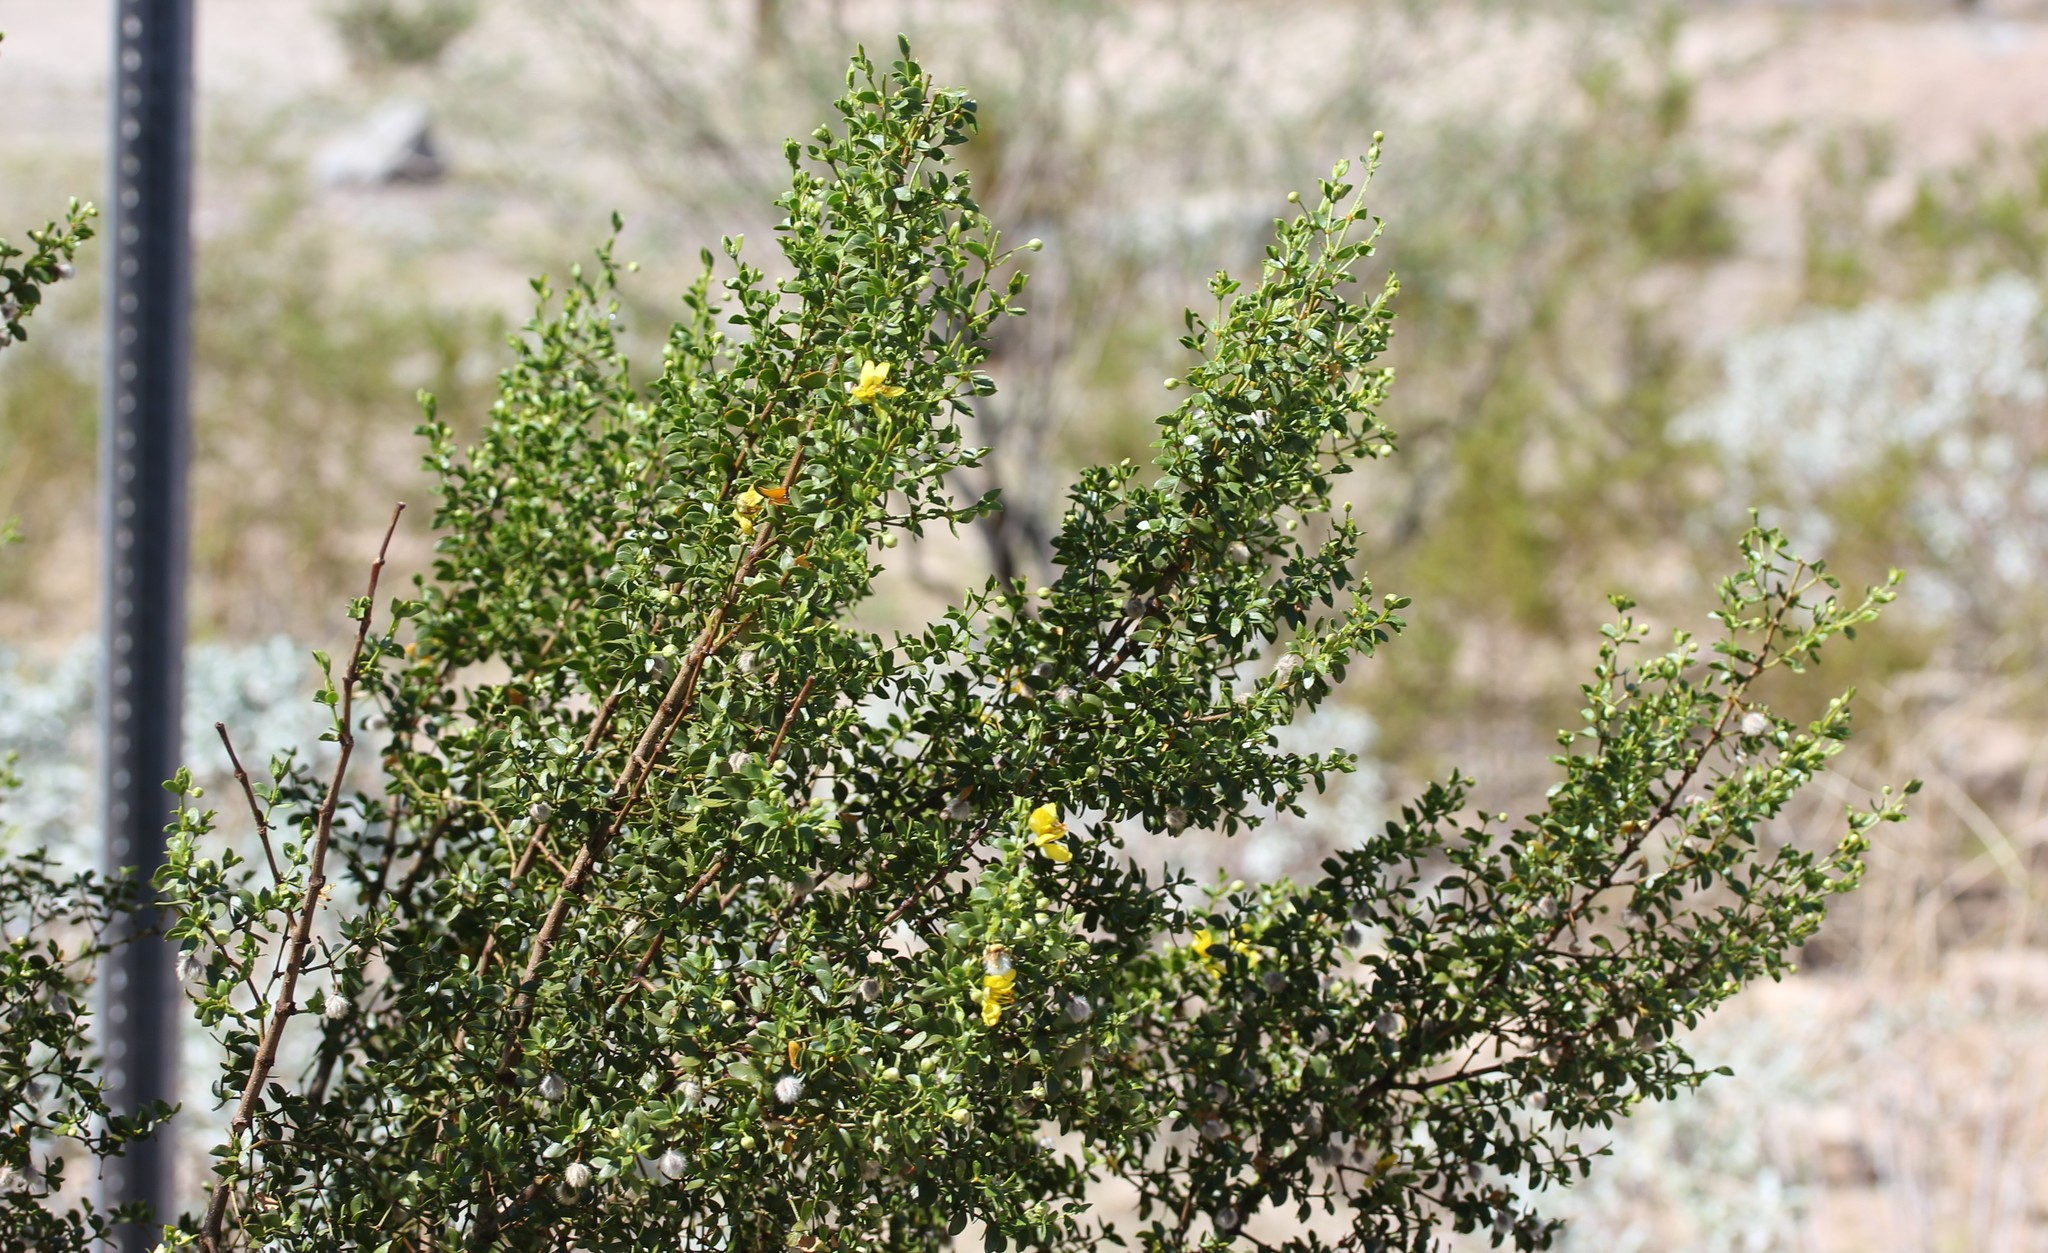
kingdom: Plantae
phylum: Tracheophyta
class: Magnoliopsida
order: Zygophyllales
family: Zygophyllaceae
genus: Larrea
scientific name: Larrea tridentata
